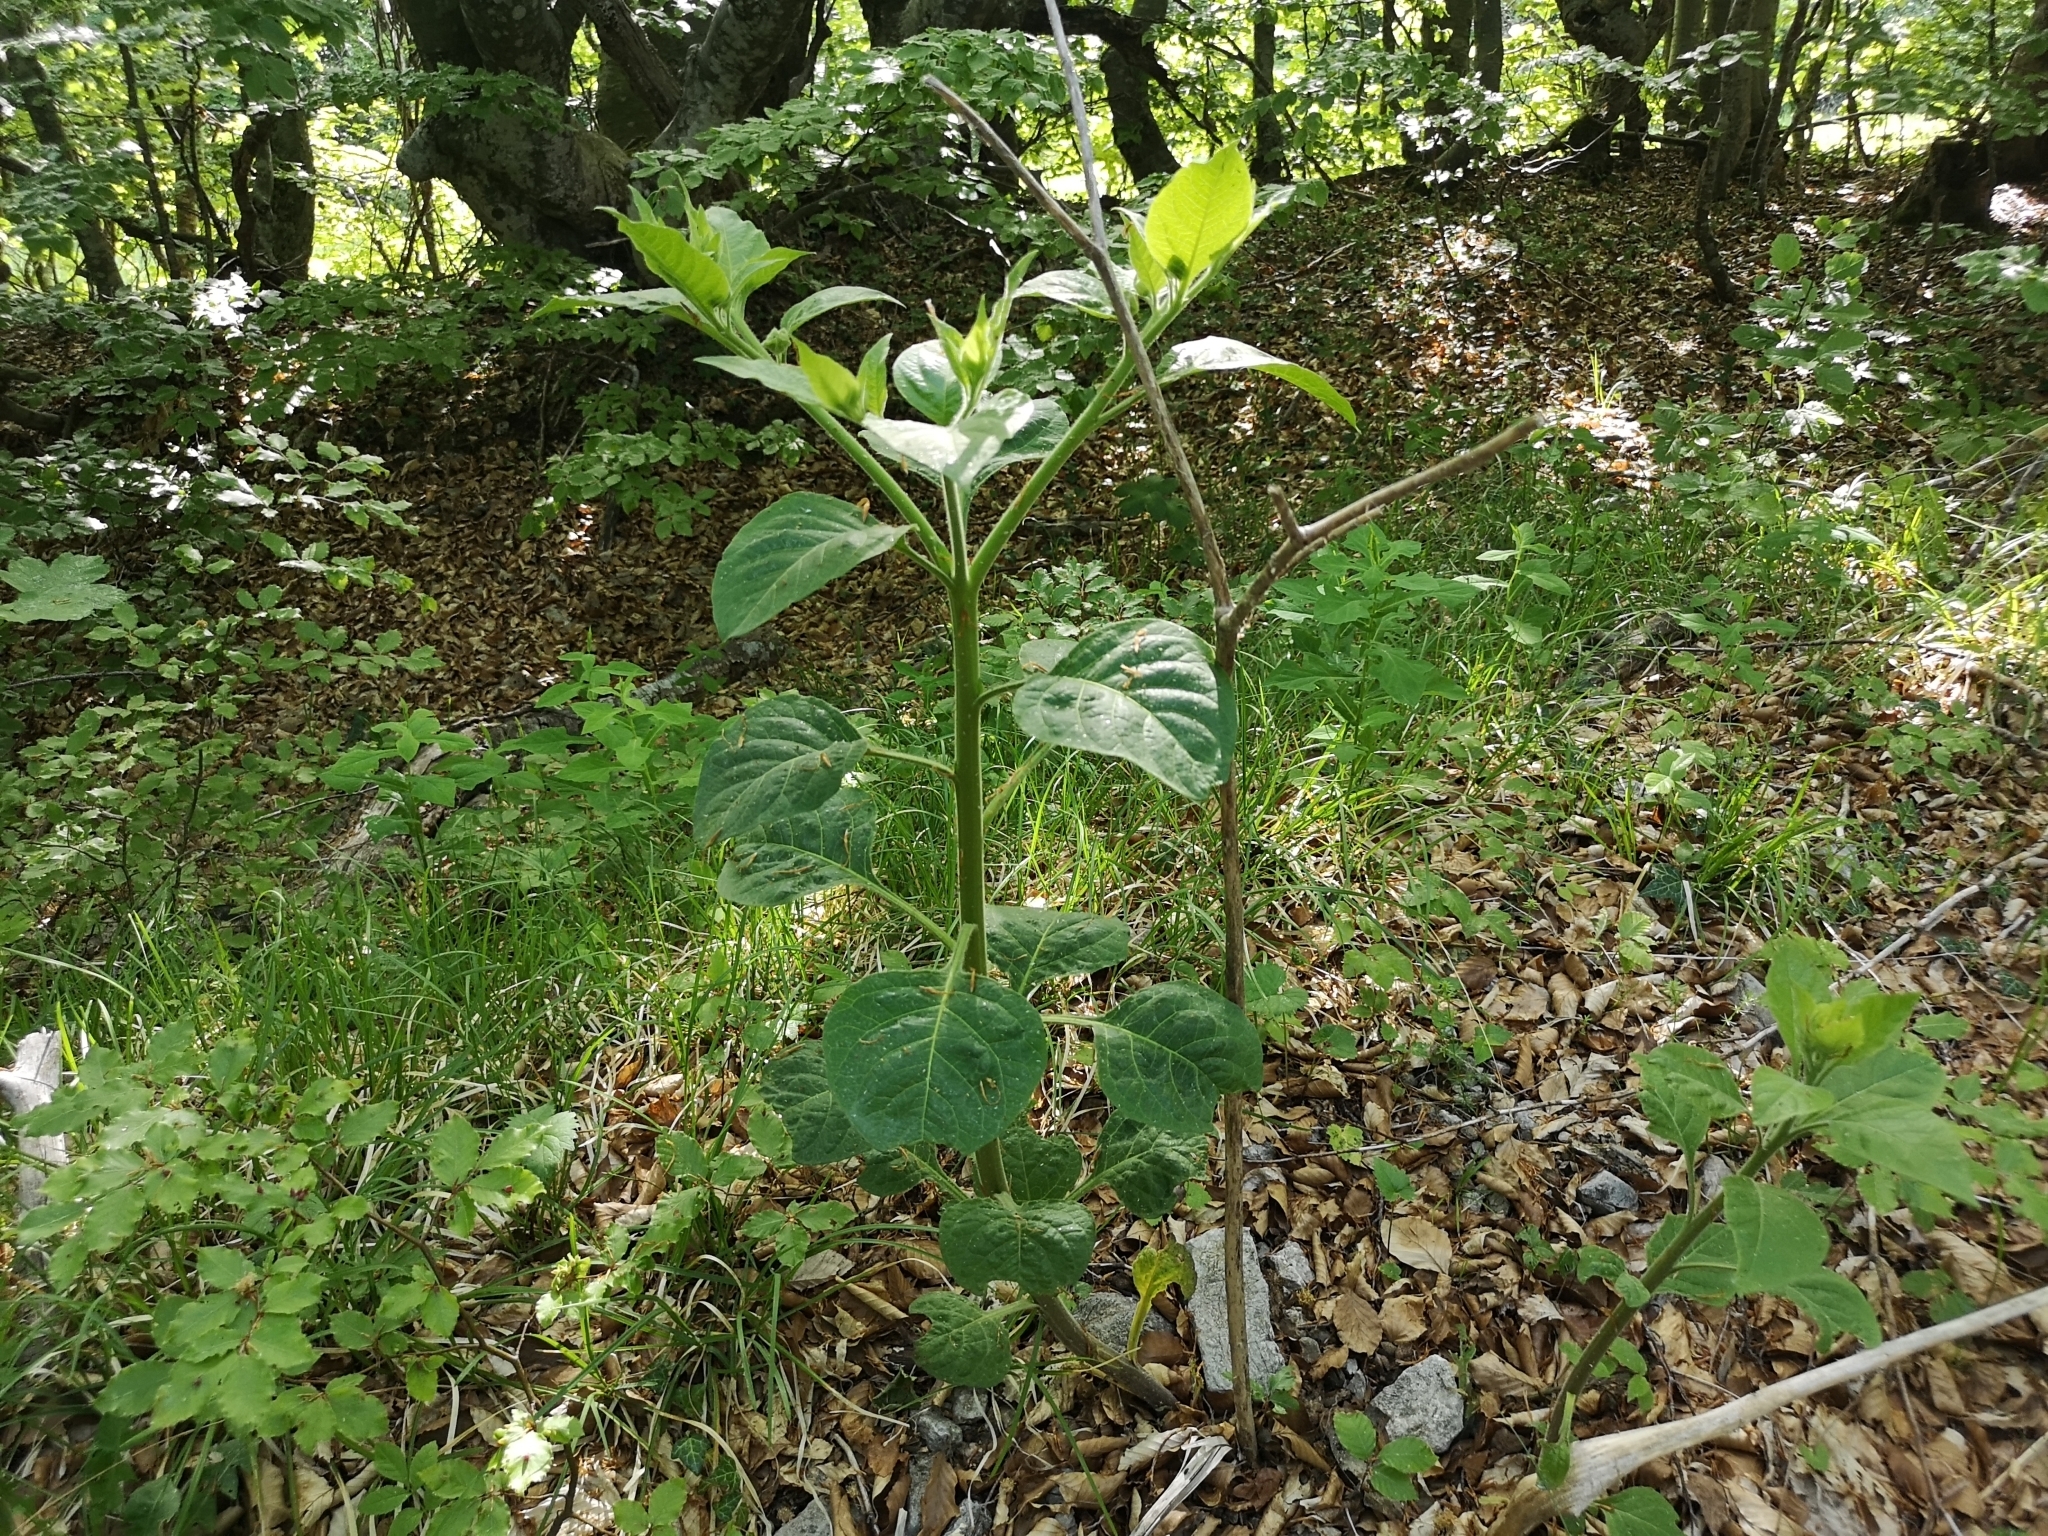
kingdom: Plantae
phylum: Tracheophyta
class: Magnoliopsida
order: Solanales
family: Solanaceae
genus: Atropa
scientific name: Atropa belladonna
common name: Deadly nightshade
